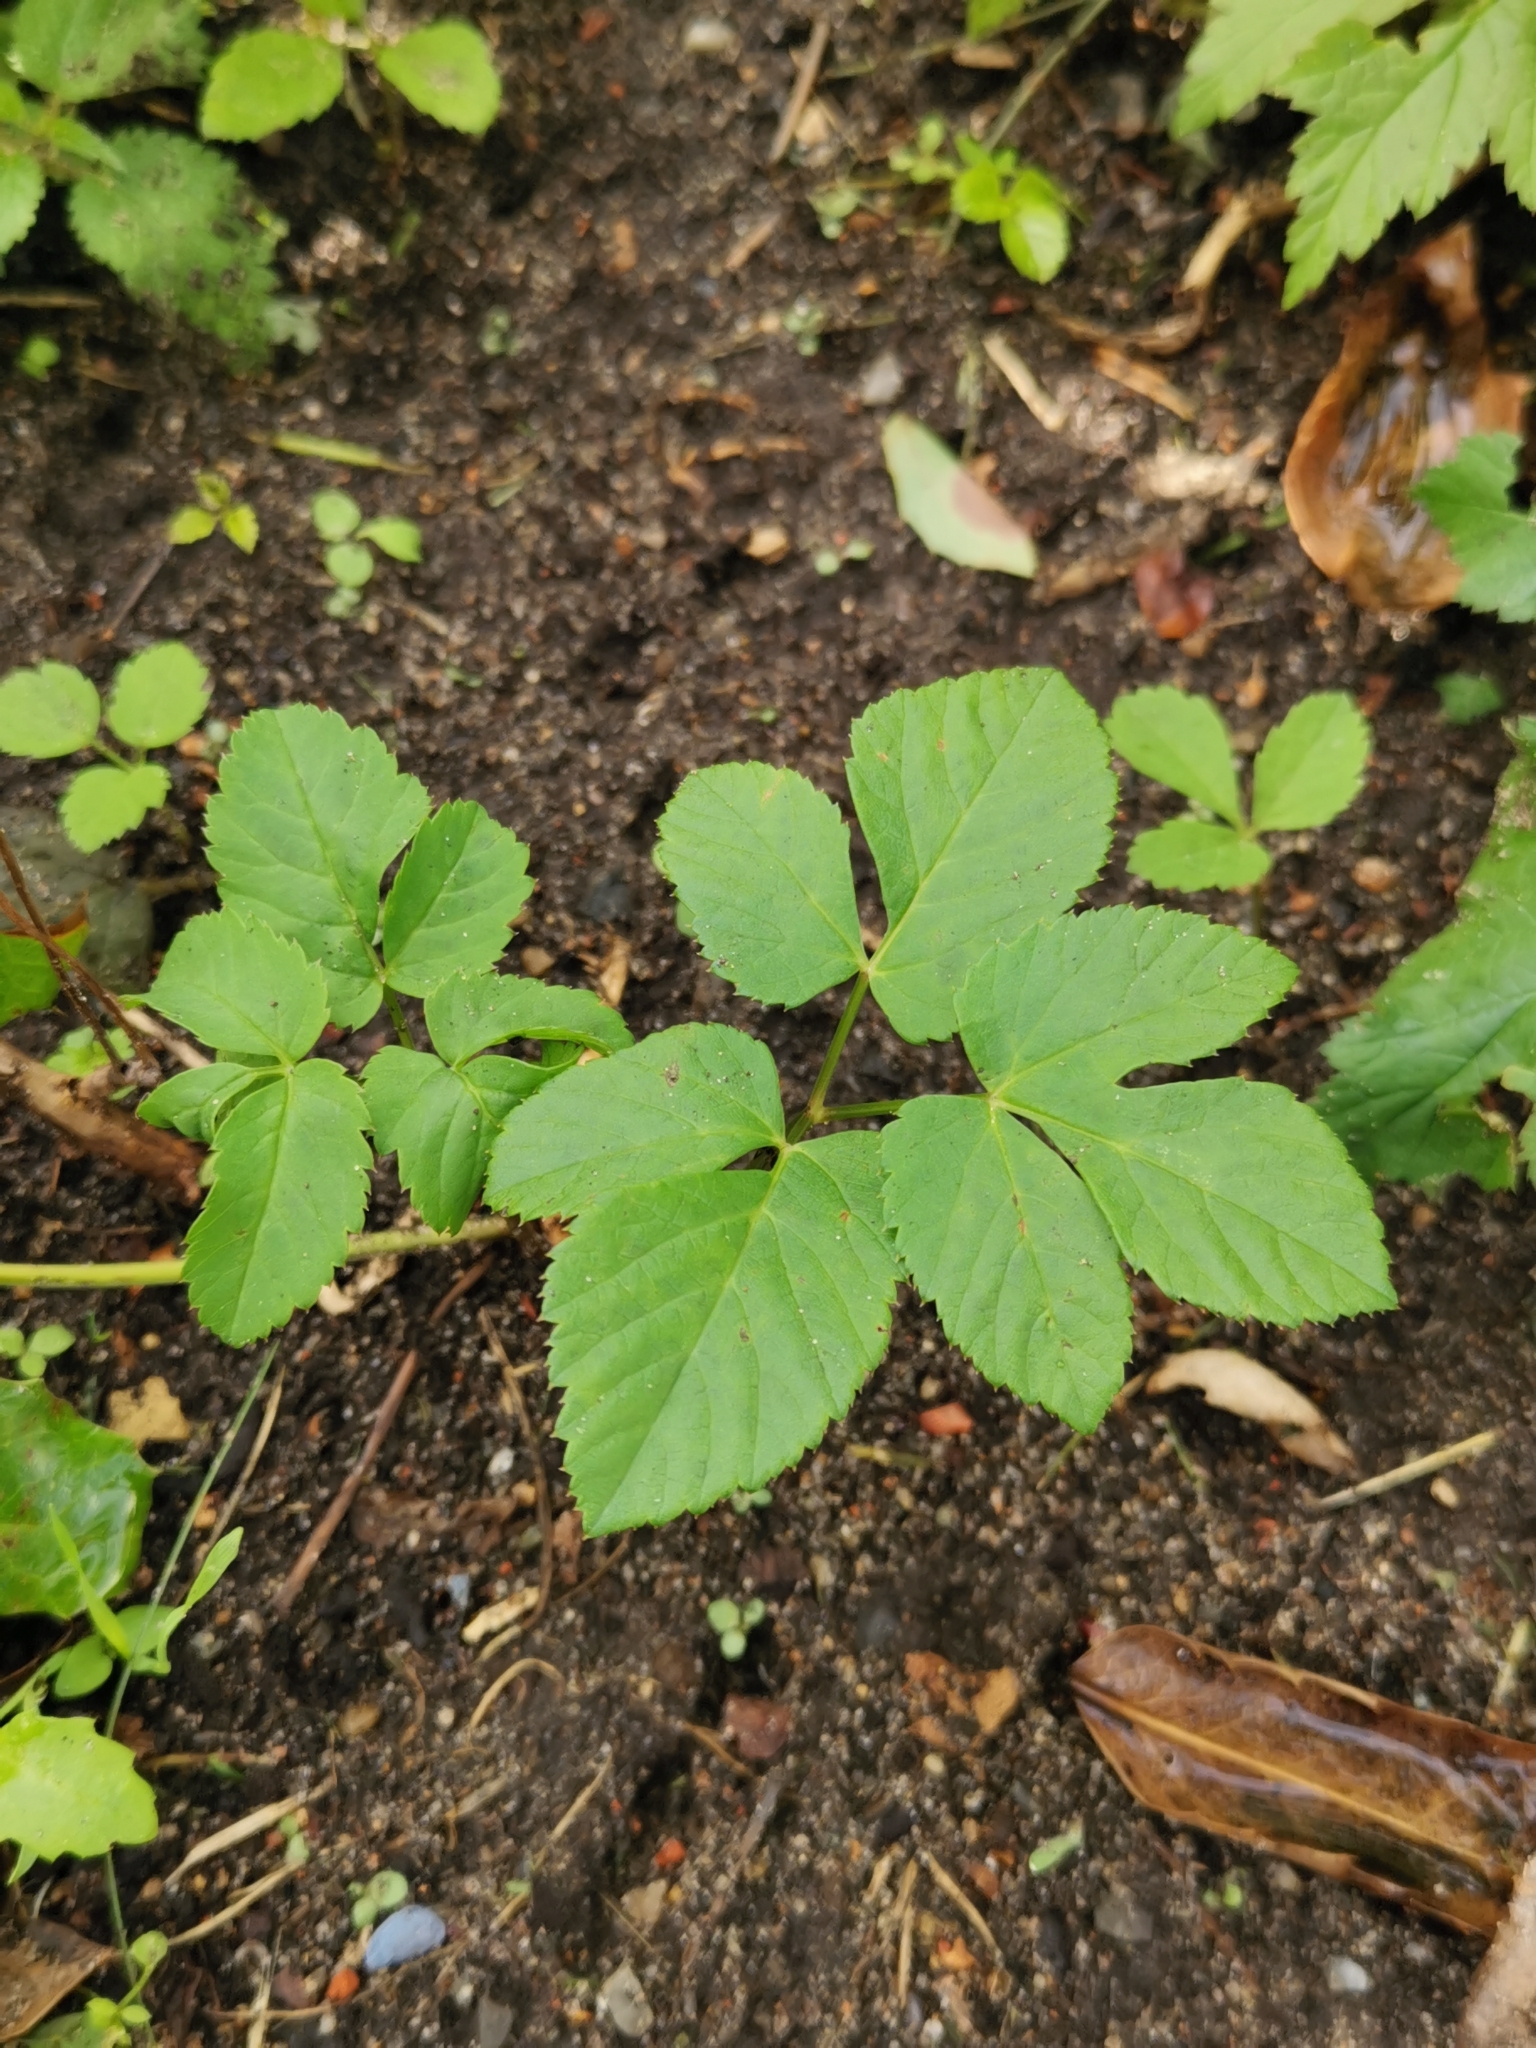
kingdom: Plantae
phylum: Tracheophyta
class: Magnoliopsida
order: Apiales
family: Apiaceae
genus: Aegopodium
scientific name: Aegopodium podagraria
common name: Ground-elder
